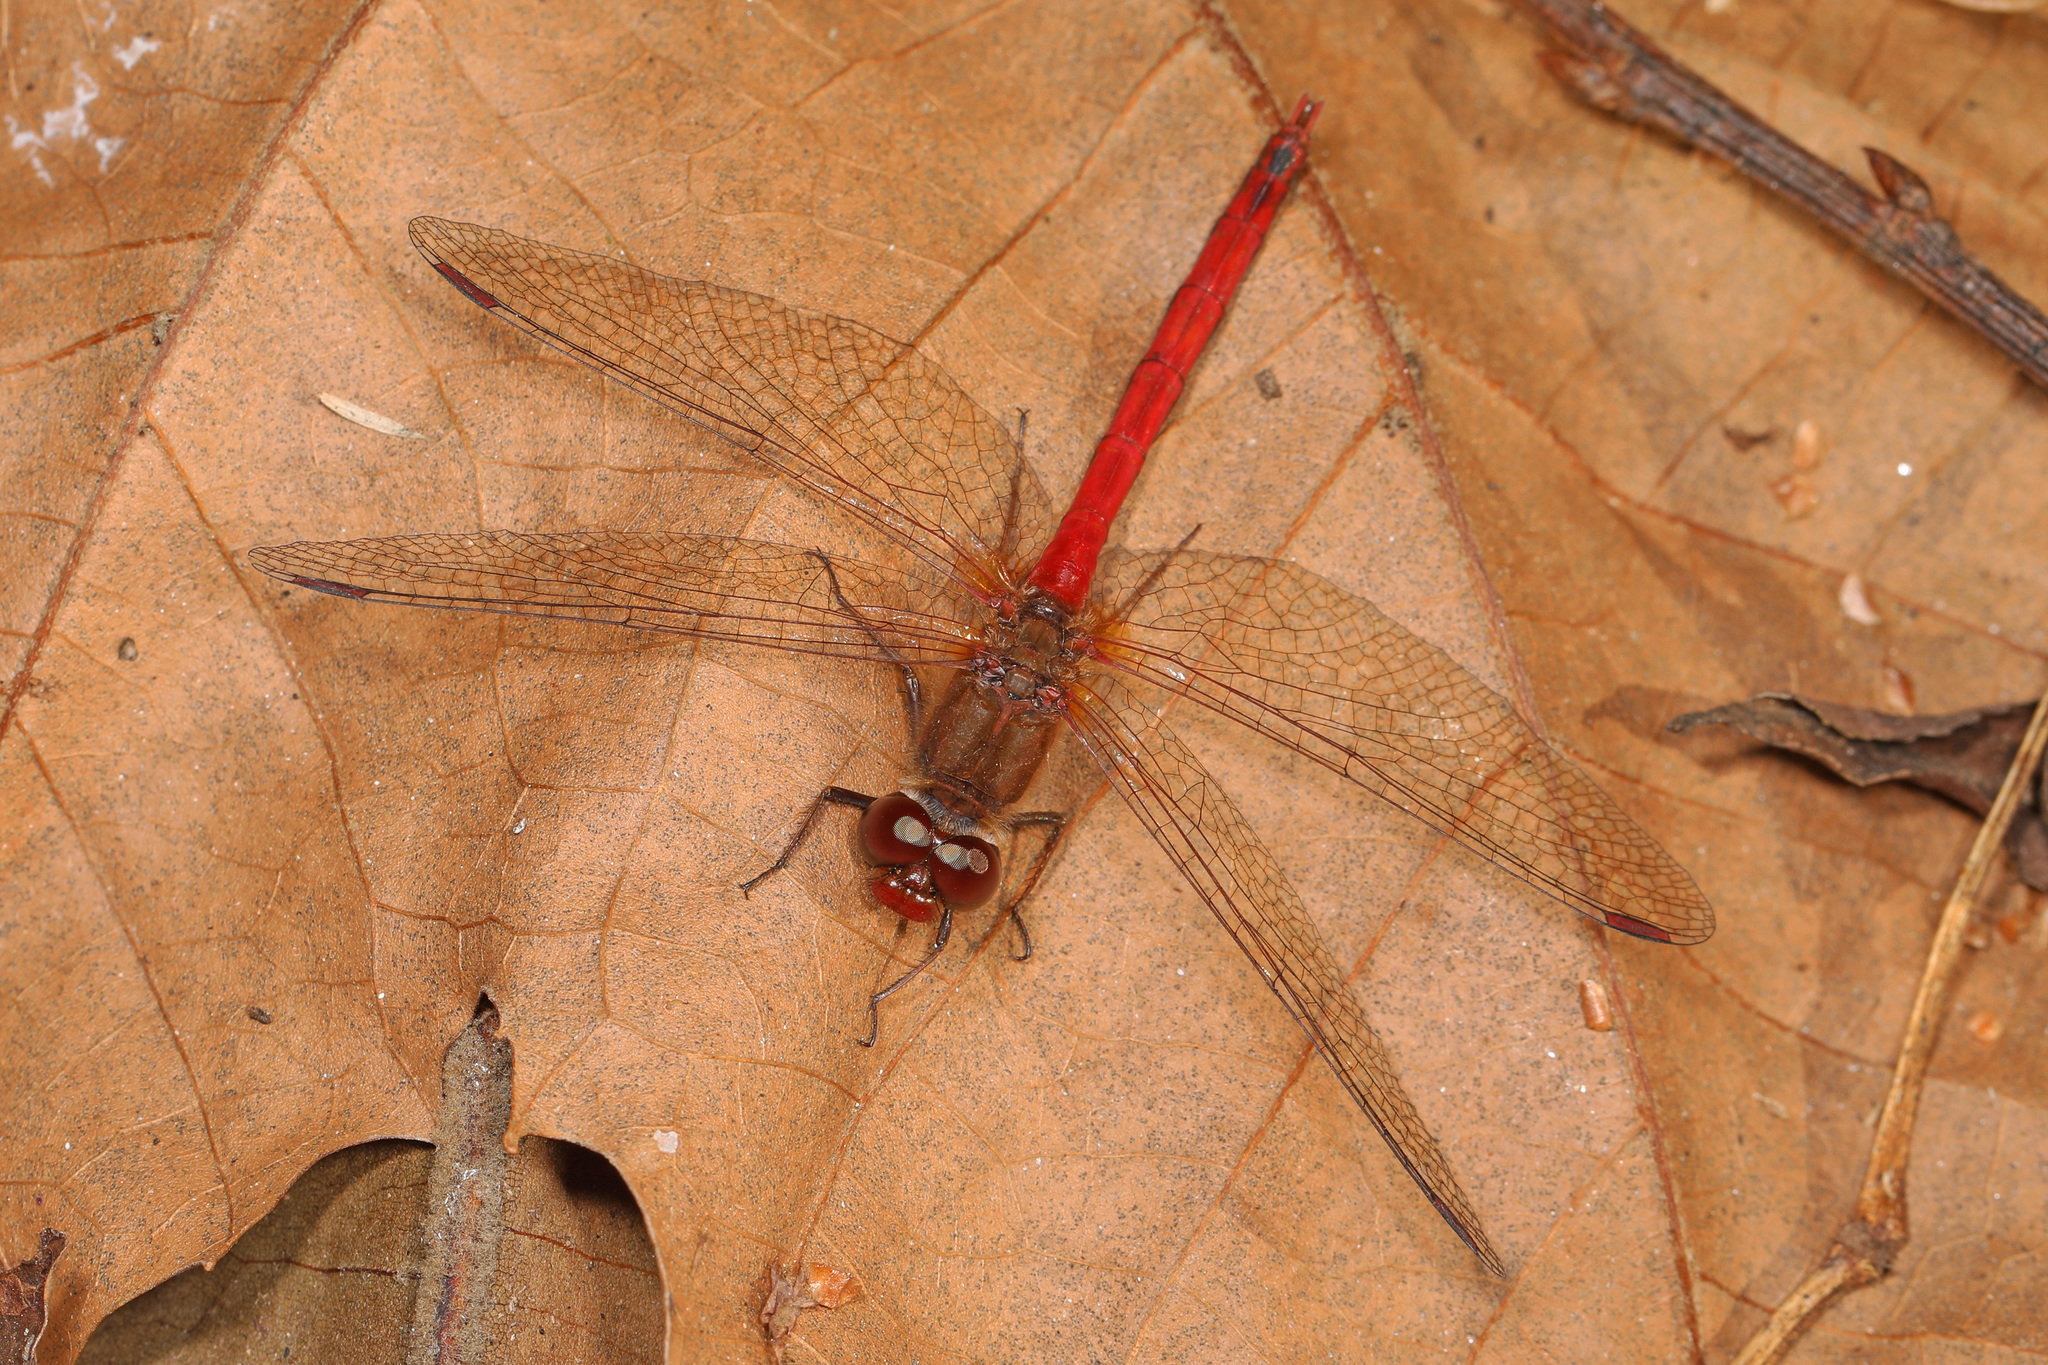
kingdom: Animalia
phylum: Arthropoda
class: Insecta
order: Odonata
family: Libellulidae
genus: Sympetrum
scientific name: Sympetrum vicinum
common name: Autumn meadowhawk
